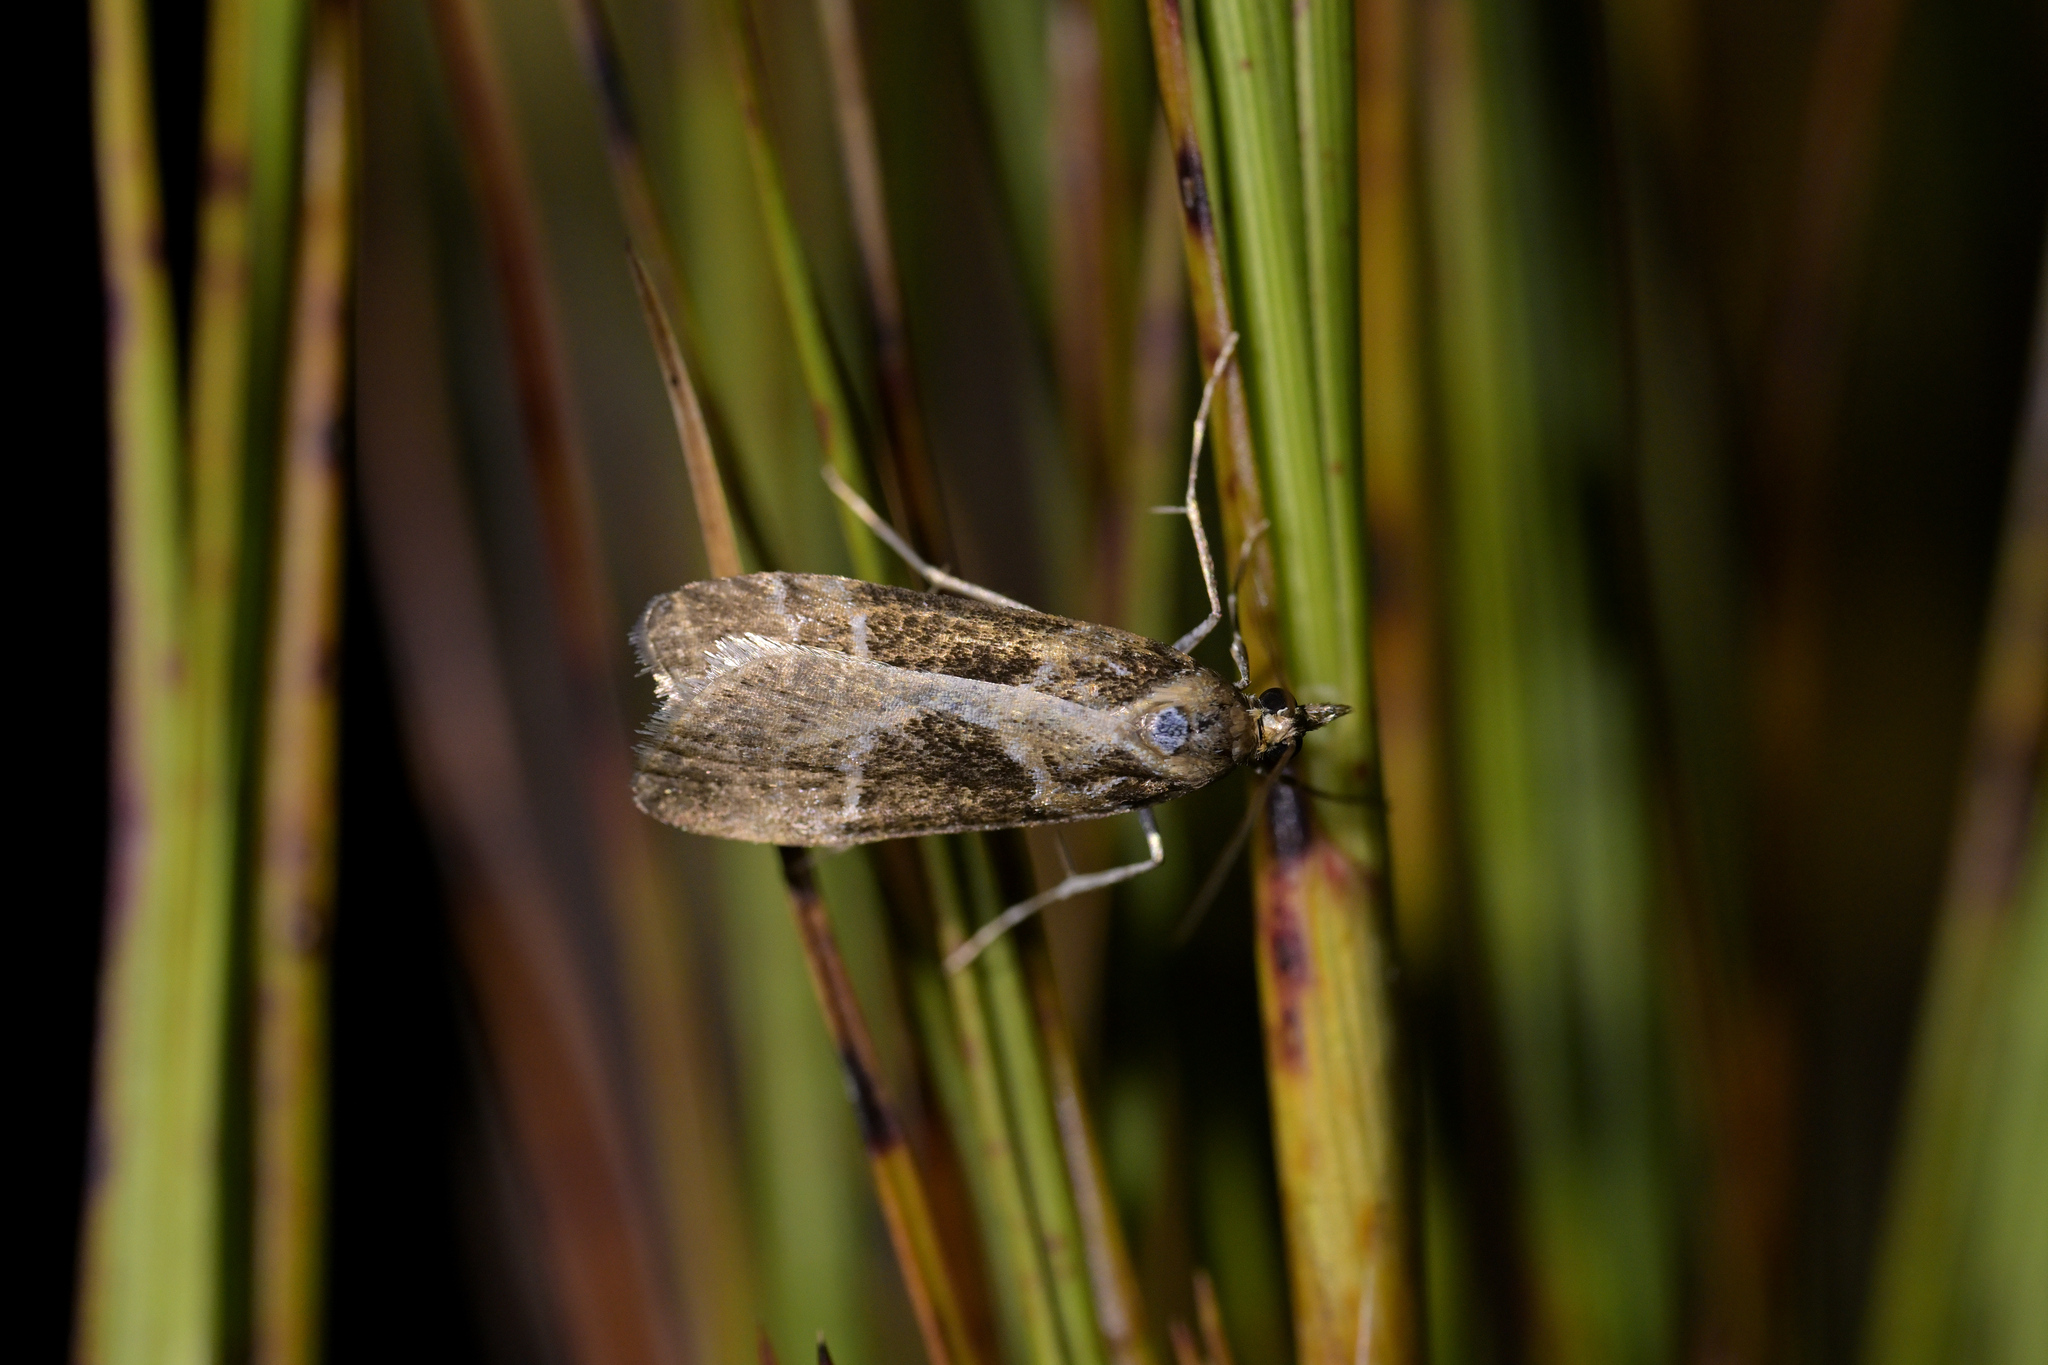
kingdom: Animalia
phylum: Arthropoda
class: Insecta
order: Lepidoptera
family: Crambidae
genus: Eudonia
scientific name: Eudonia melanaegis
